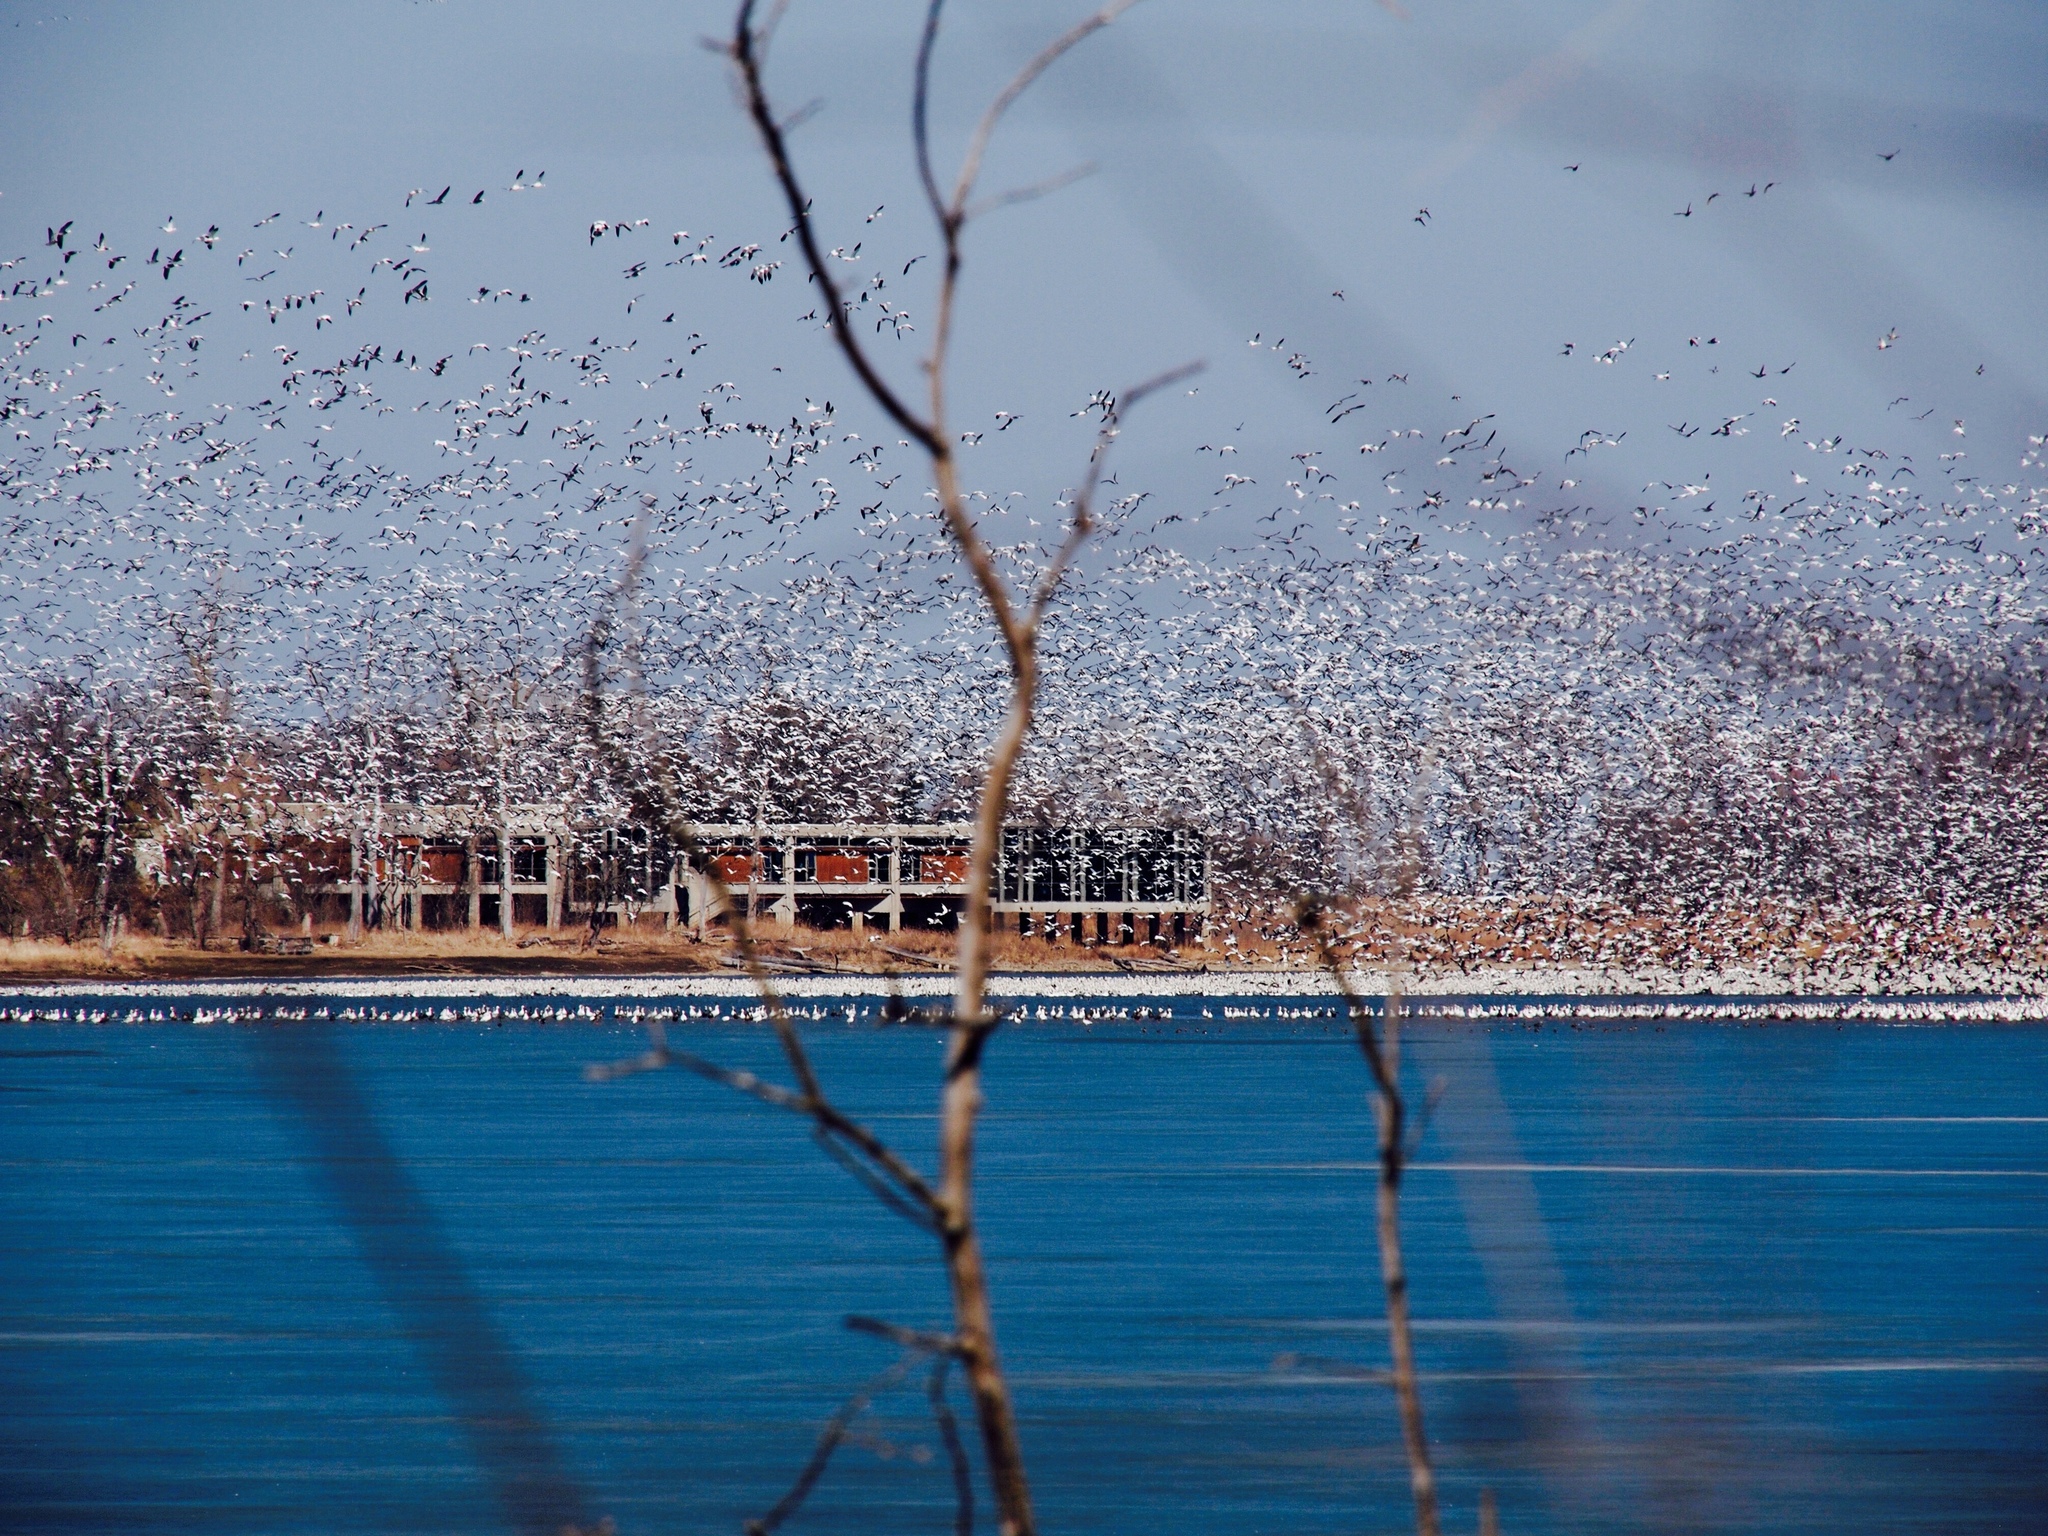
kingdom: Animalia
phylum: Chordata
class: Aves
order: Anseriformes
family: Anatidae
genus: Anser
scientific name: Anser caerulescens
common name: Snow goose
